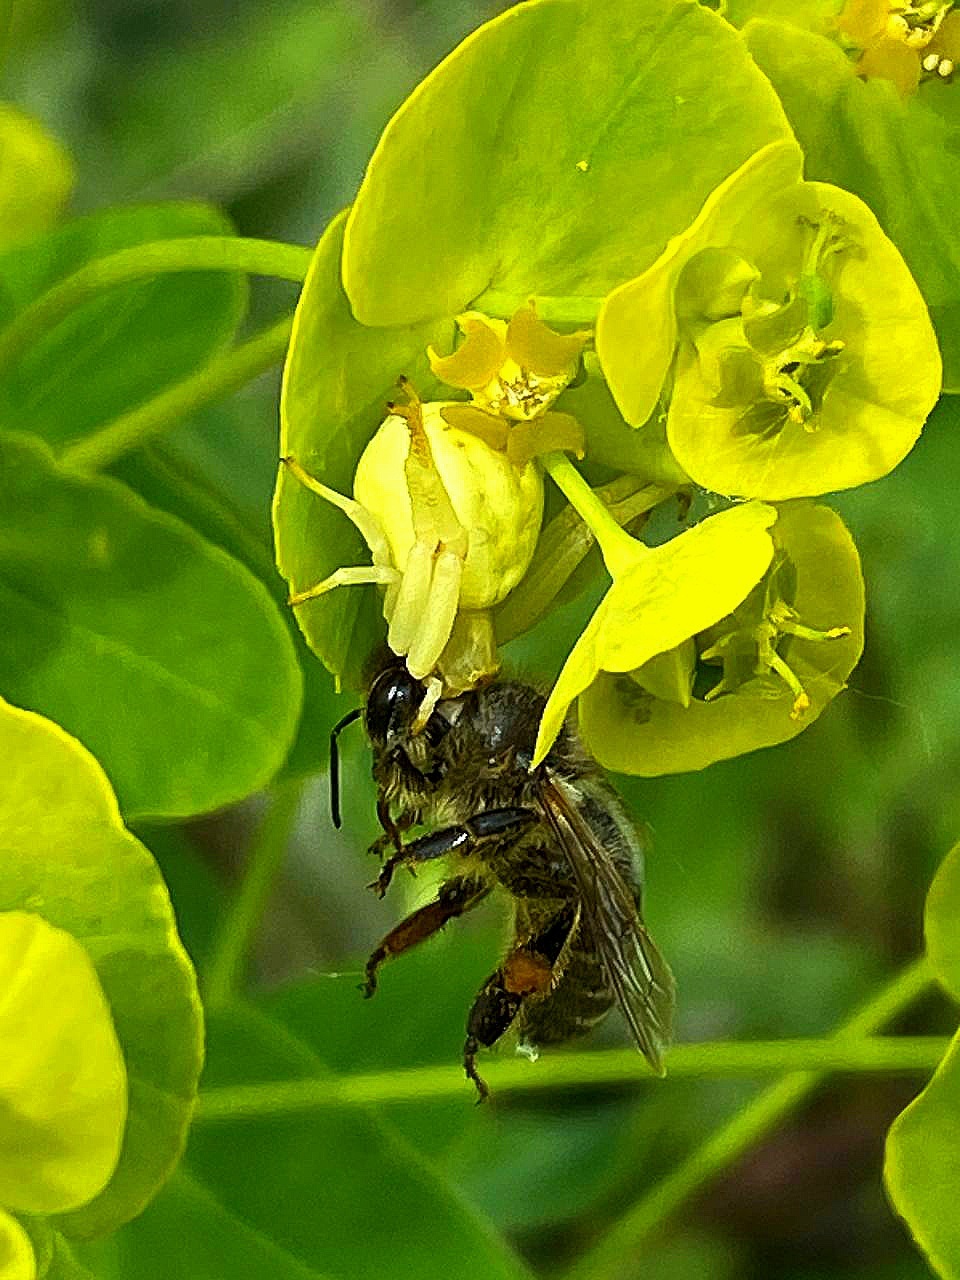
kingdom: Animalia
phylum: Arthropoda
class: Insecta
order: Hymenoptera
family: Apidae
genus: Apis
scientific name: Apis mellifera
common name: Honey bee
